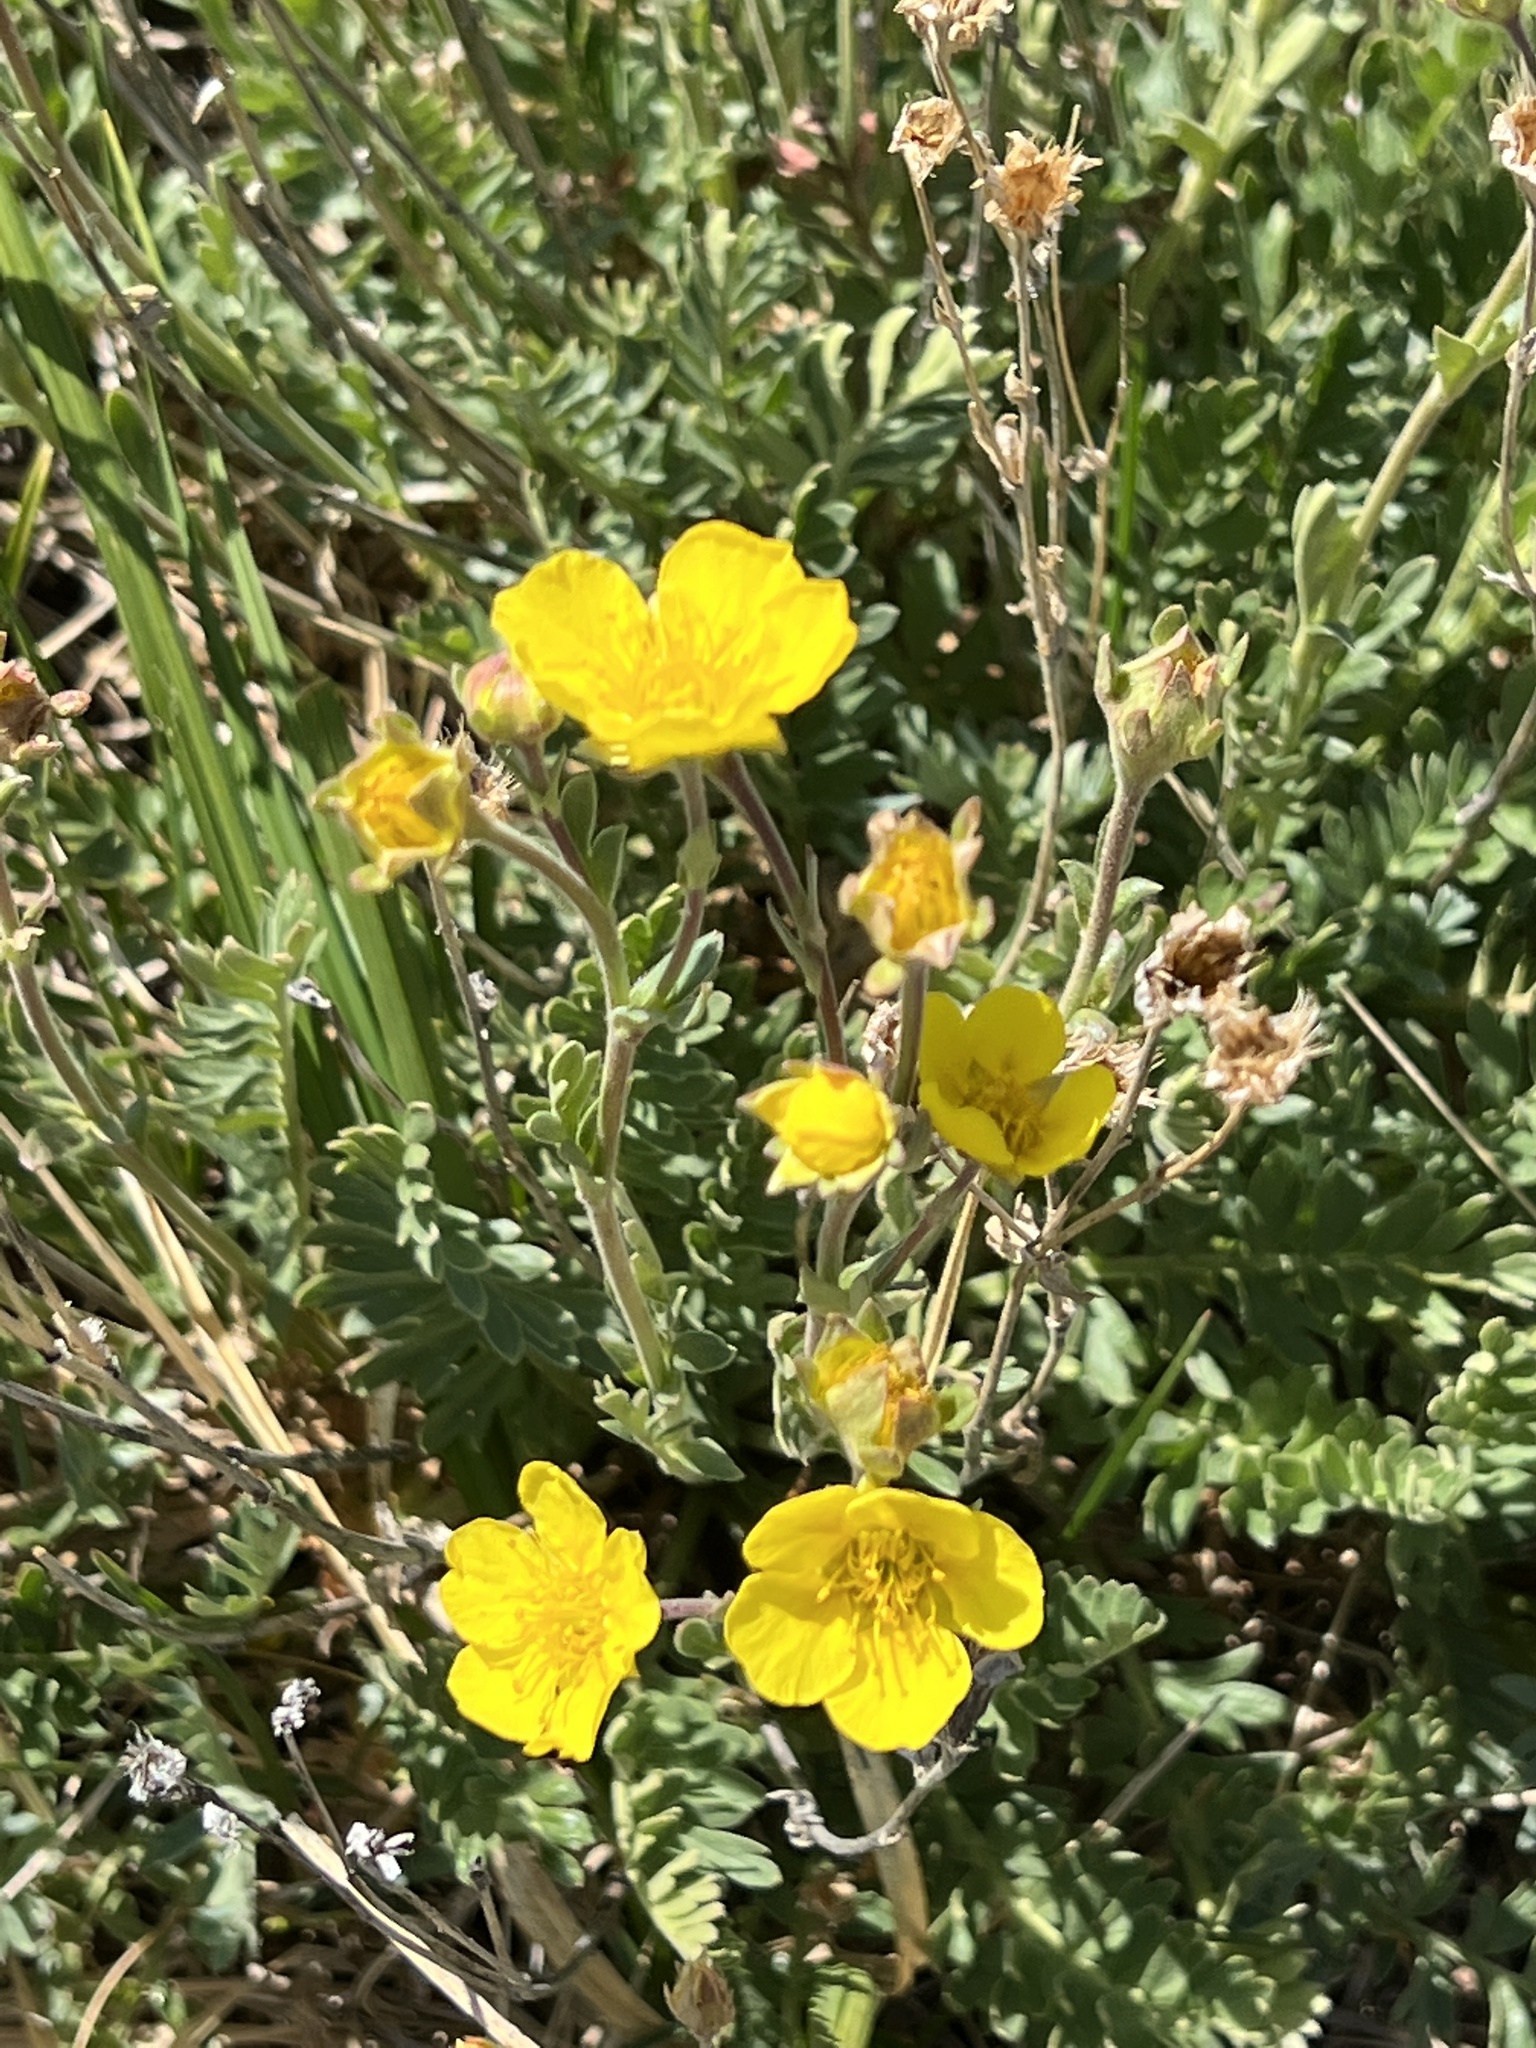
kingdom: Plantae
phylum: Tracheophyta
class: Magnoliopsida
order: Rosales
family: Rosaceae
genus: Geum
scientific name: Geum rossii
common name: Alpine avens
